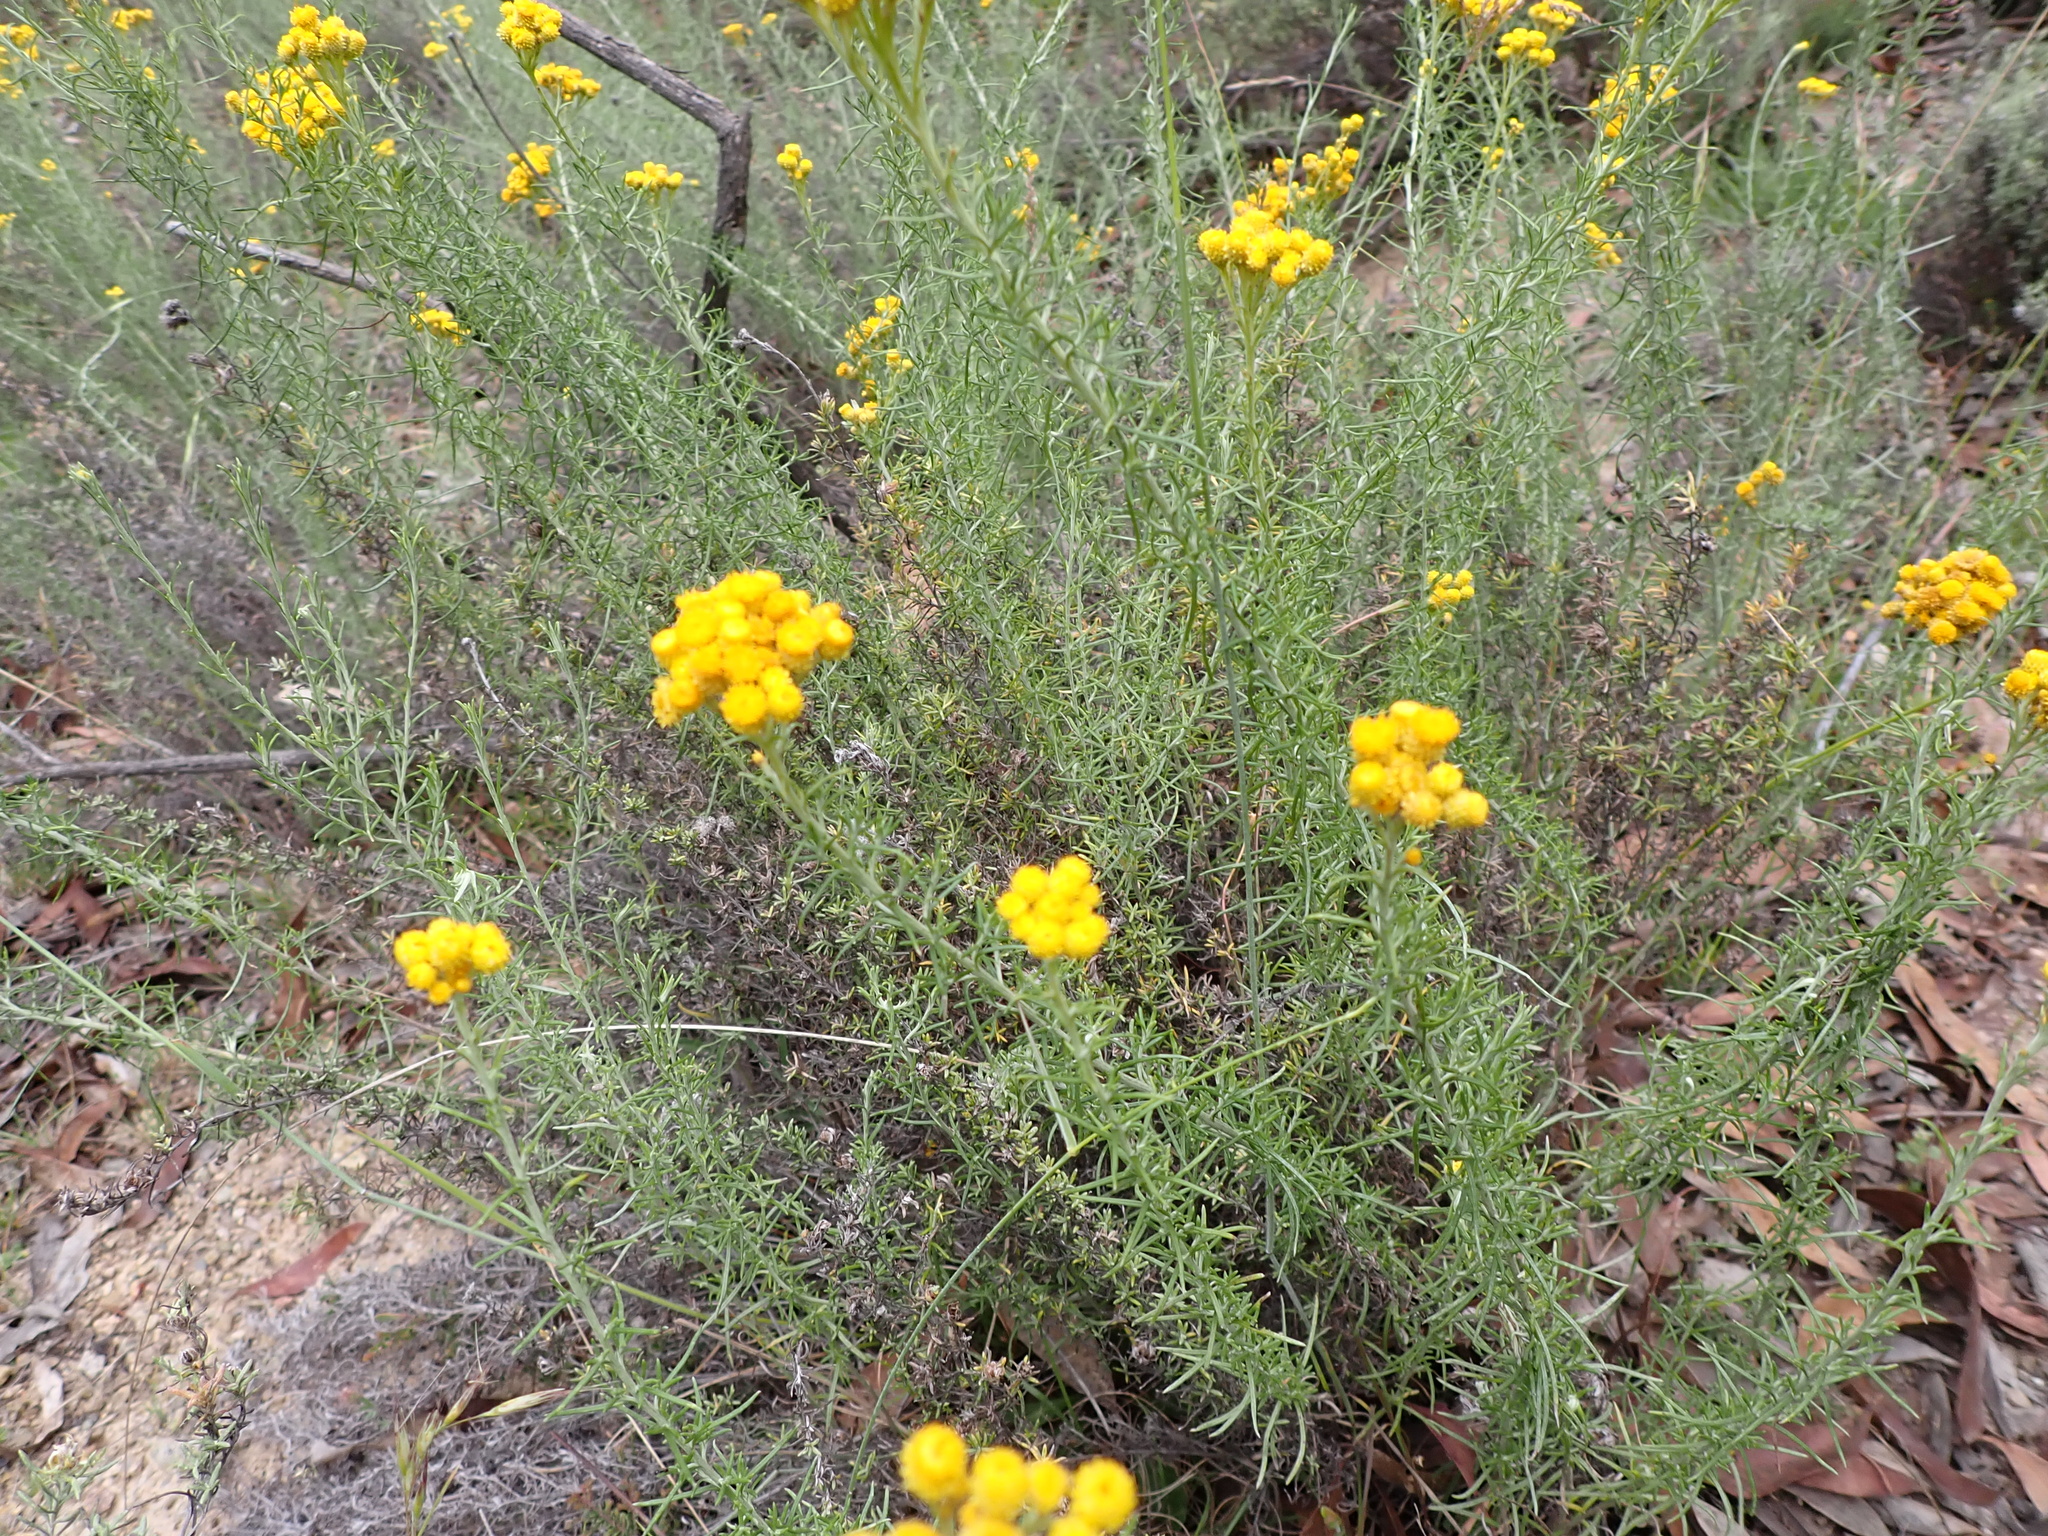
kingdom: Plantae
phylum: Tracheophyta
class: Magnoliopsida
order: Asterales
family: Asteraceae
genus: Chrysocephalum
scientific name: Chrysocephalum semipapposum
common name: Clustered everlasting
